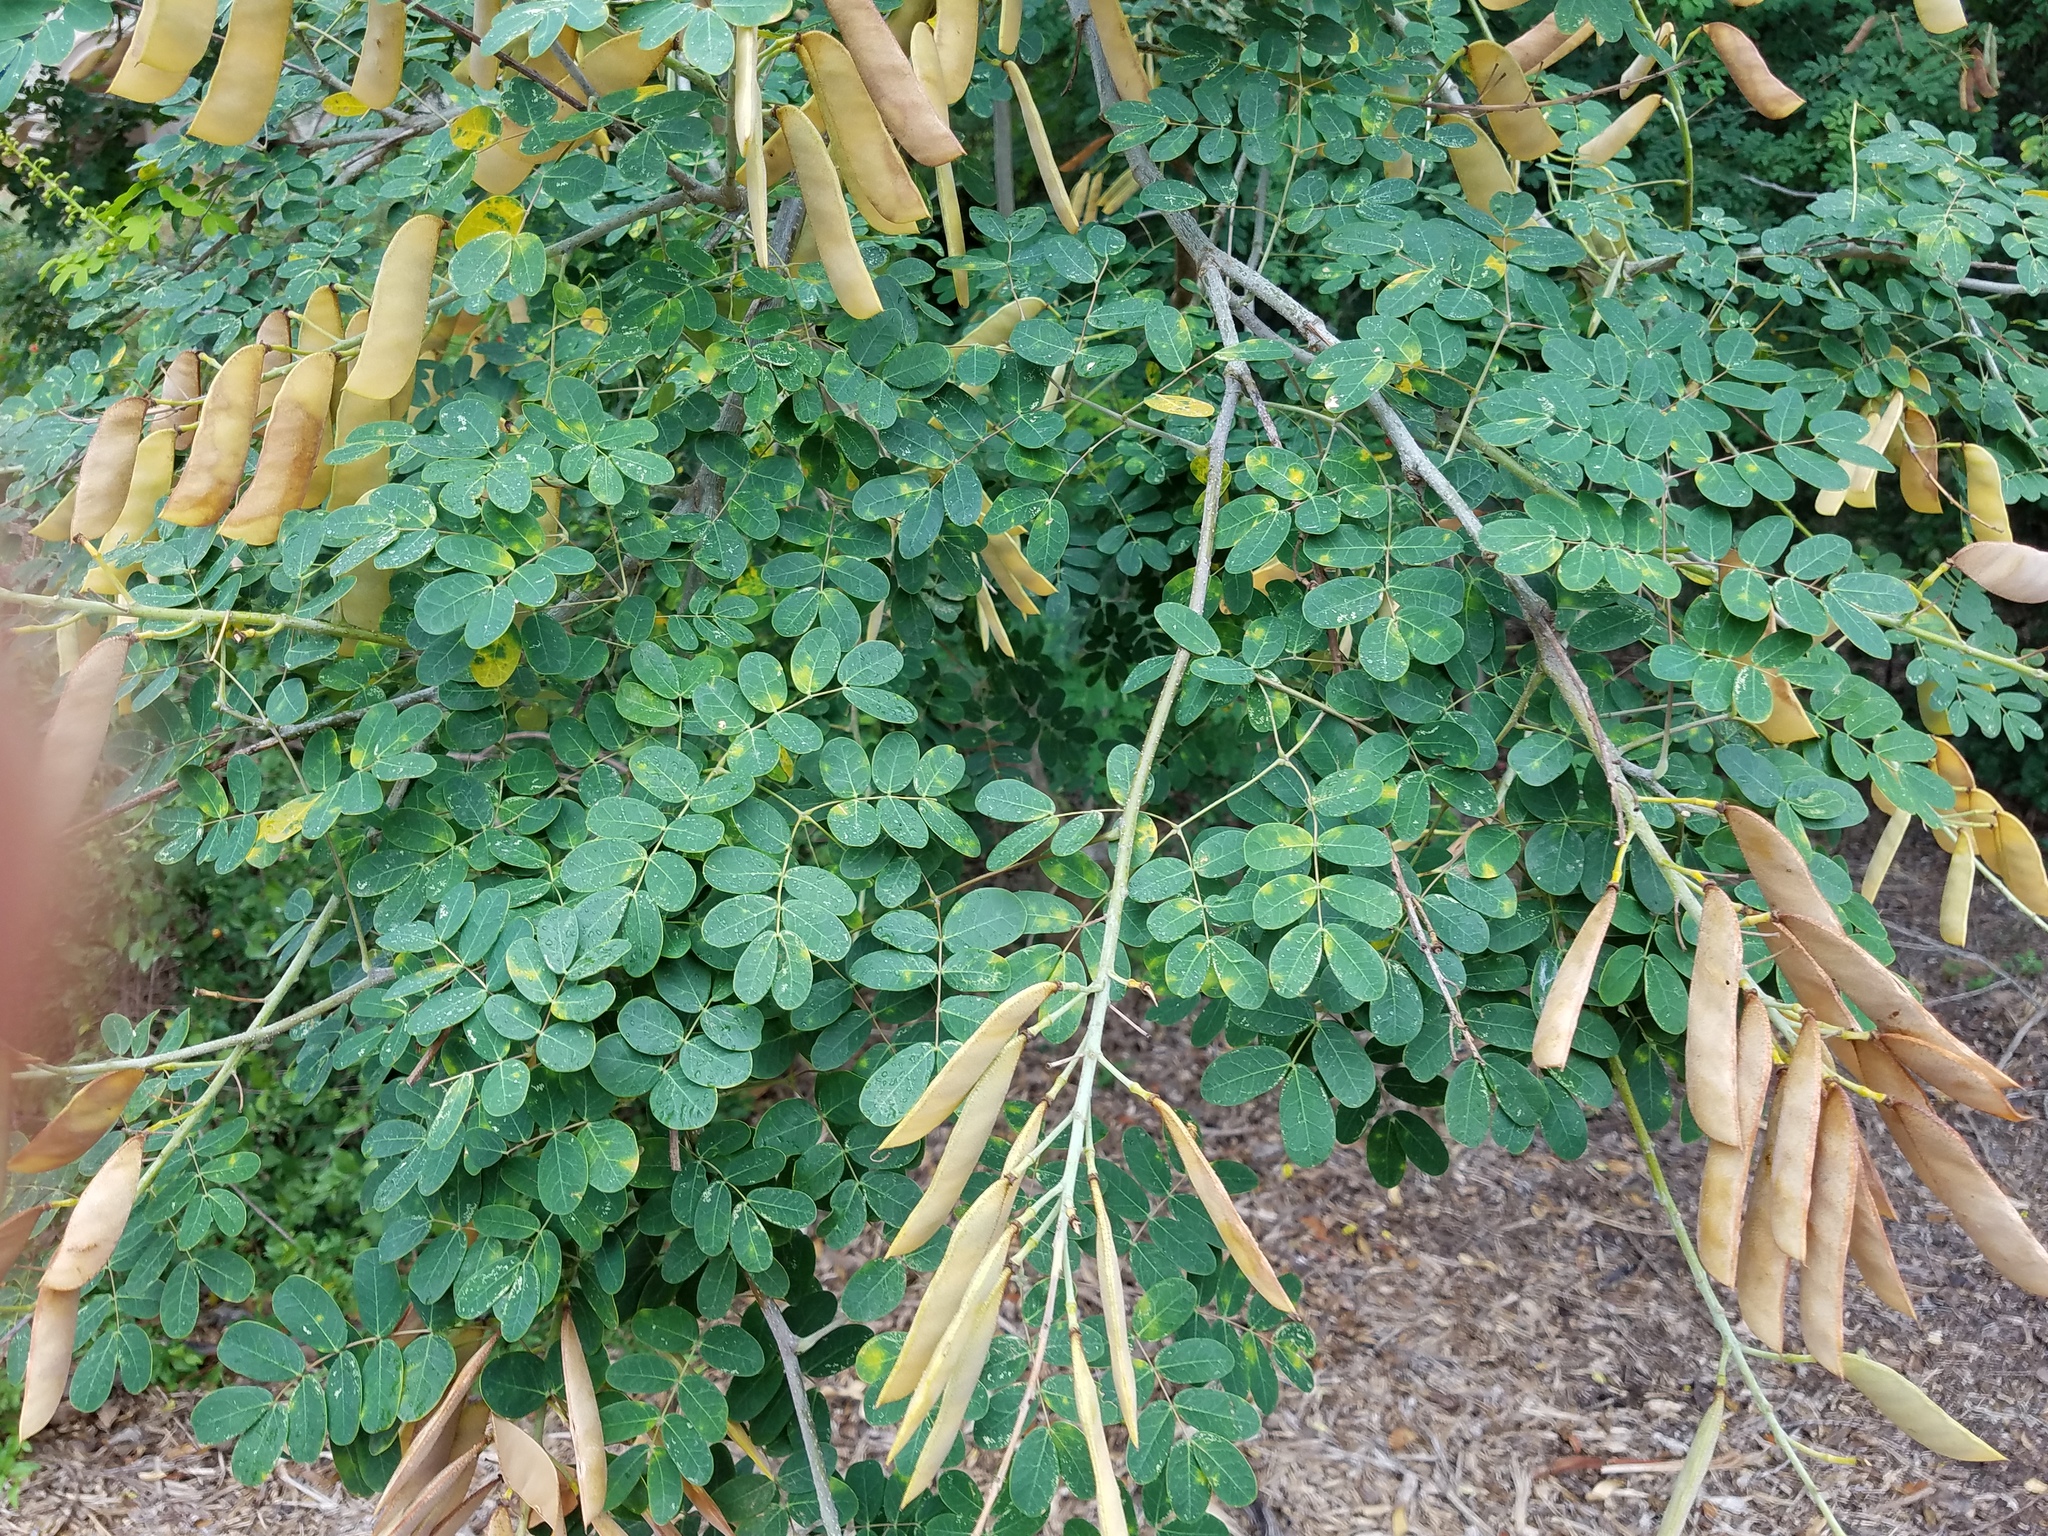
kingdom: Plantae
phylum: Tracheophyta
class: Magnoliopsida
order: Fabales
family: Fabaceae
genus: Erythrostemon
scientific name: Erythrostemon mexicanus
